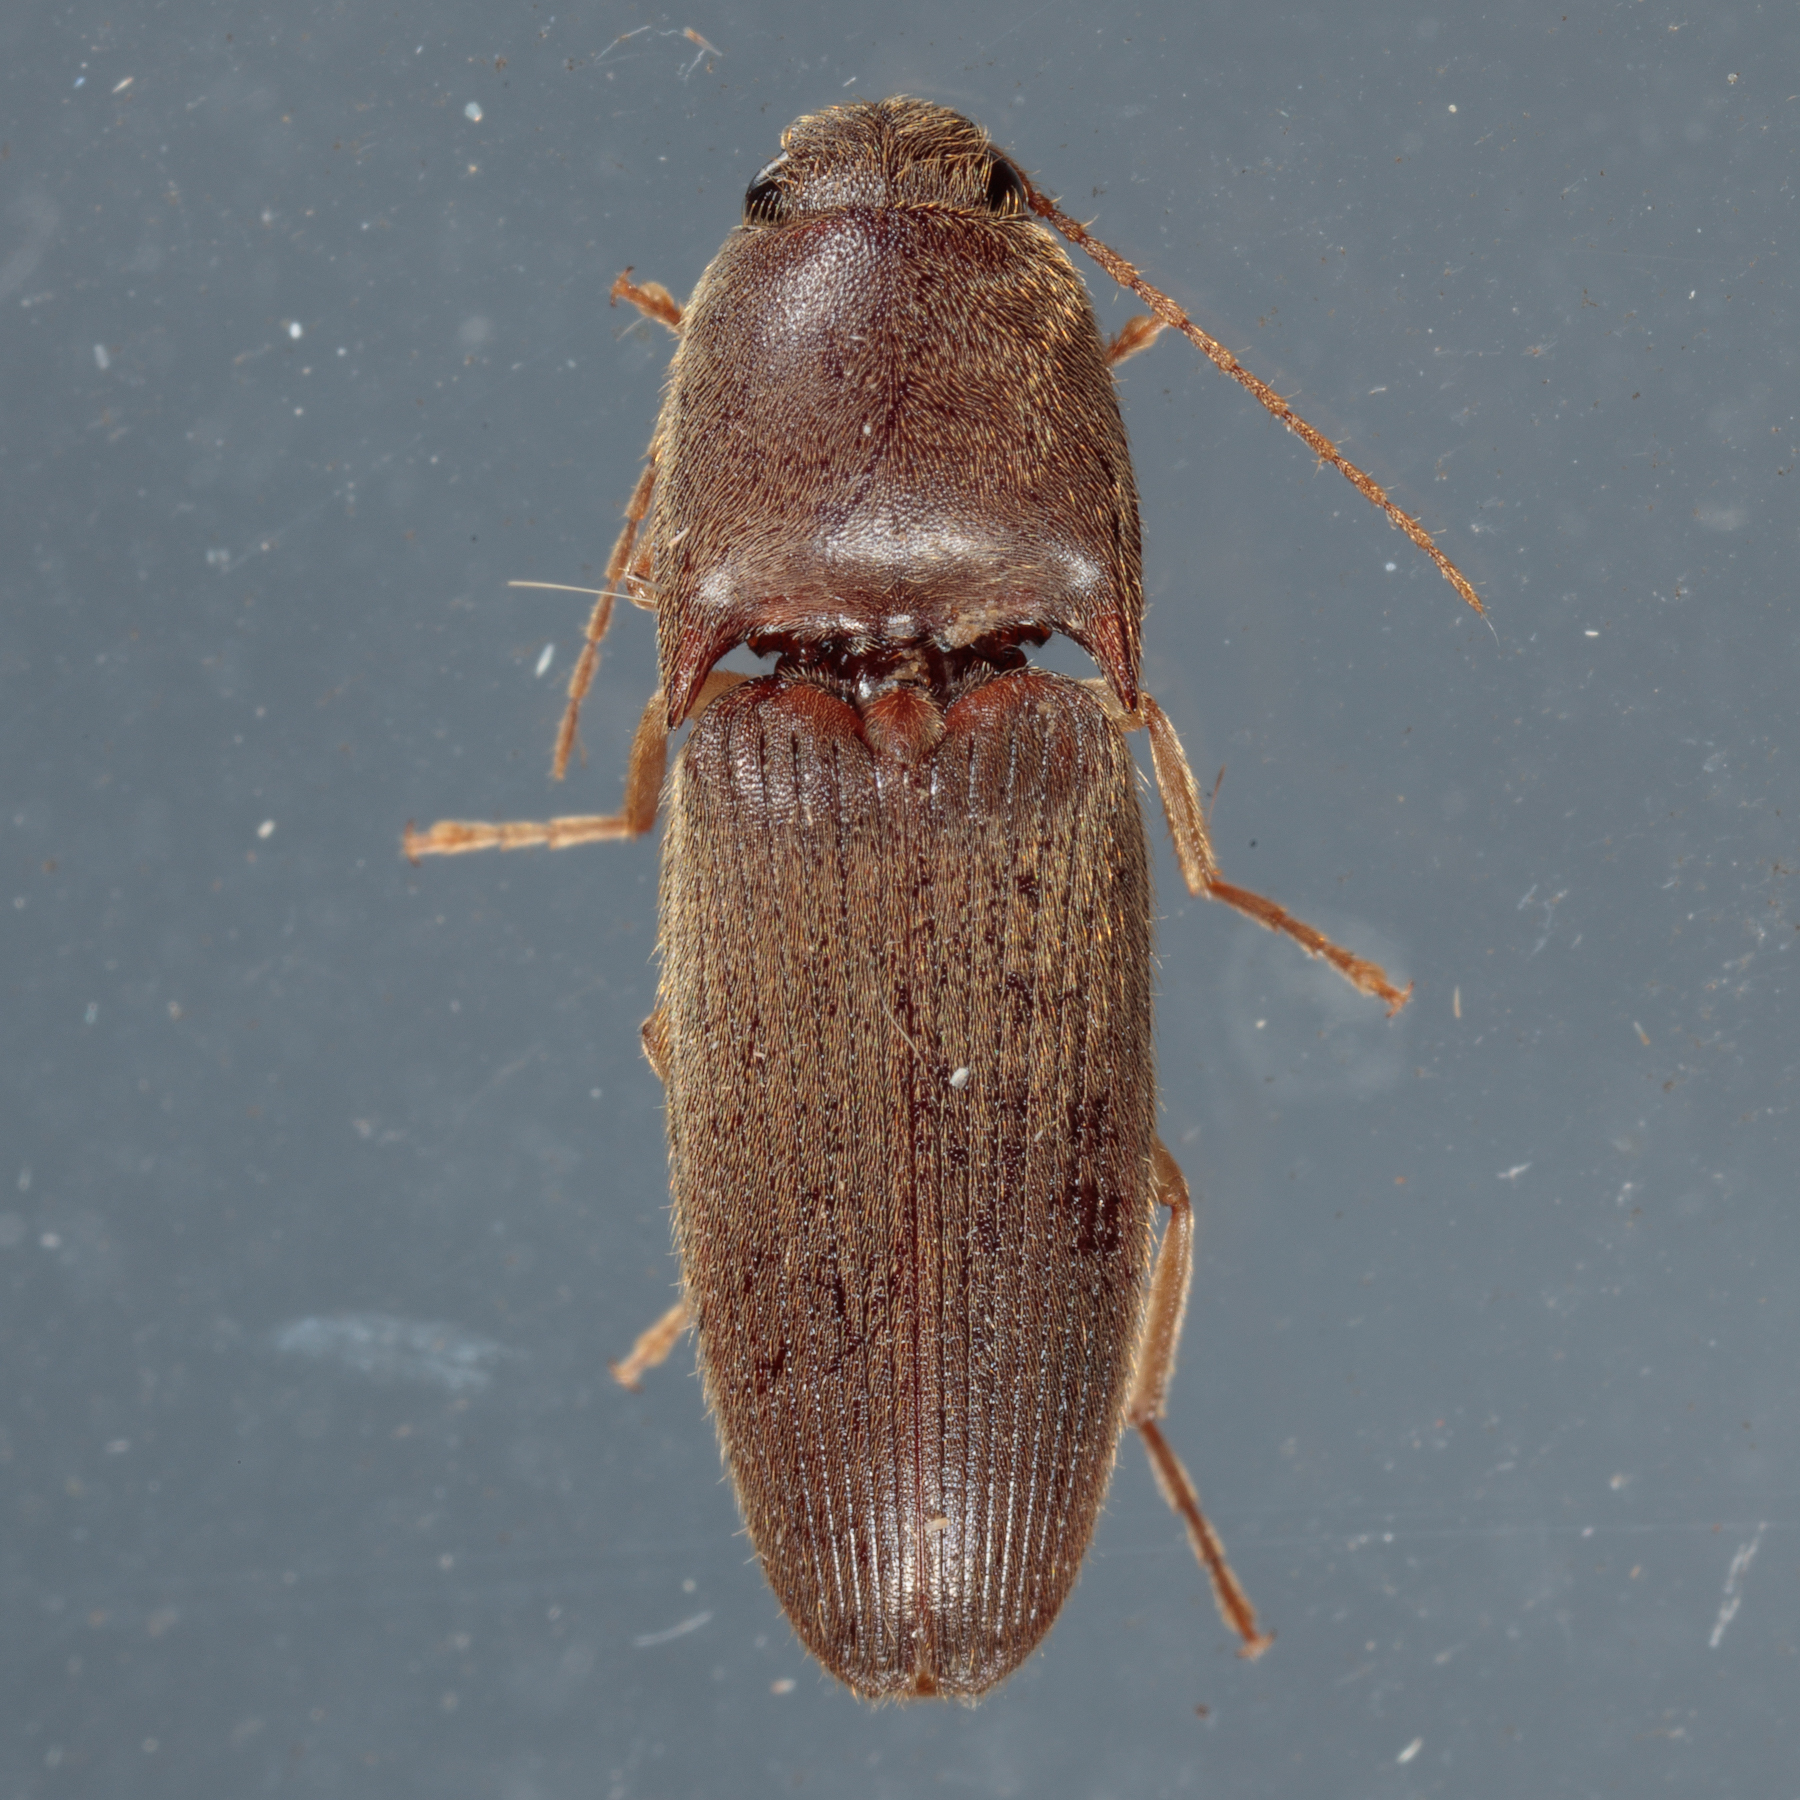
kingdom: Animalia
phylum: Arthropoda
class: Insecta
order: Coleoptera
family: Elateridae
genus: Conoderus
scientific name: Conoderus exsul
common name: Click beetle
